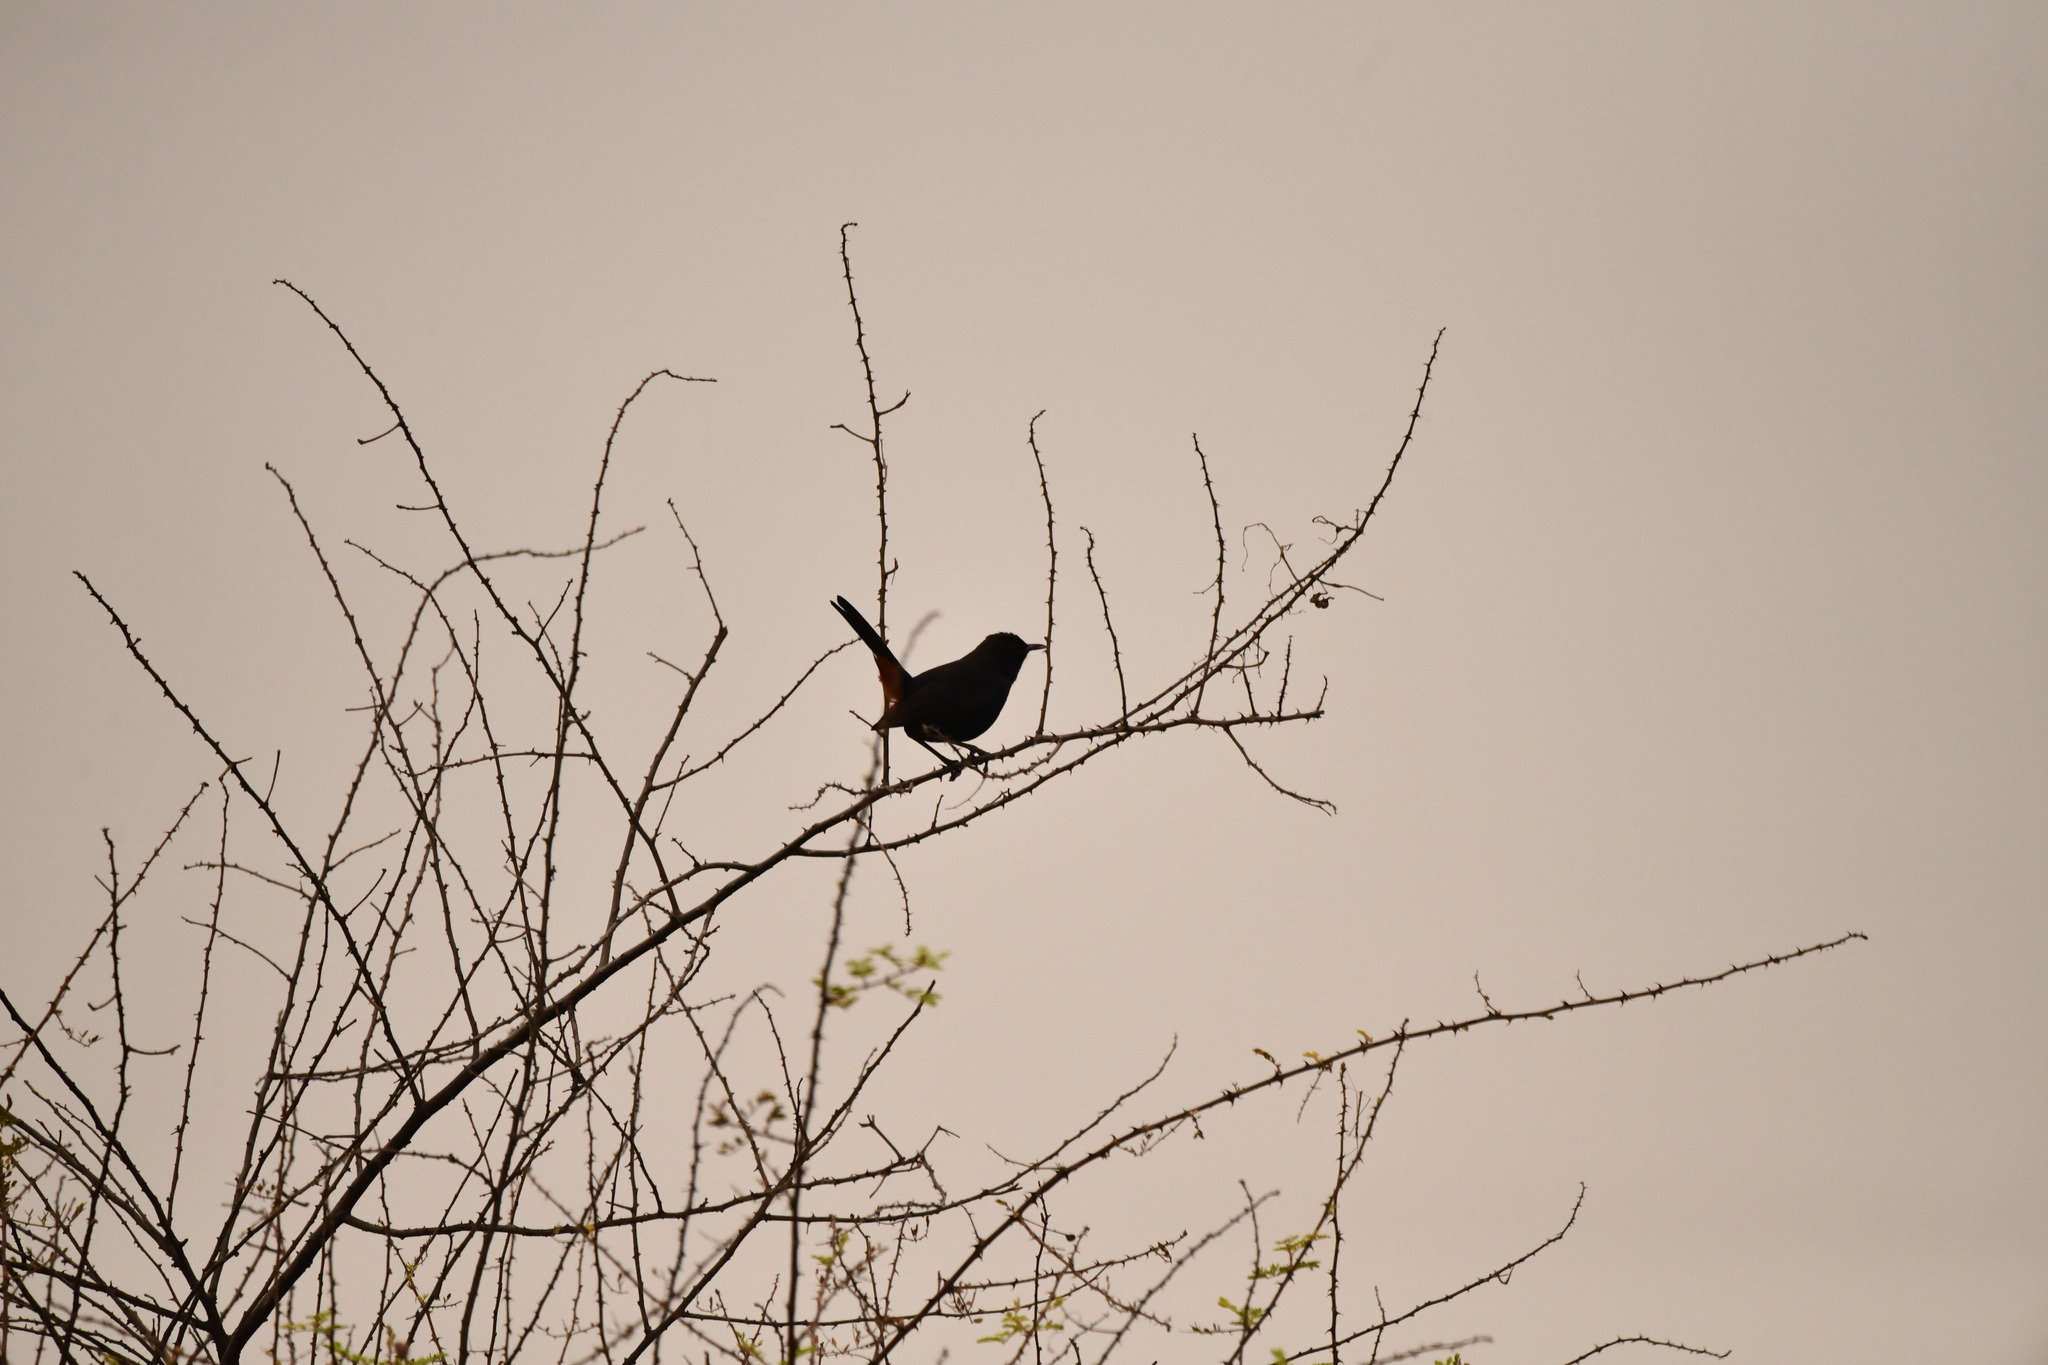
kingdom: Animalia
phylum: Chordata
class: Aves
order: Passeriformes
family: Muscicapidae
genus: Saxicoloides
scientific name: Saxicoloides fulicatus
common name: Indian robin
